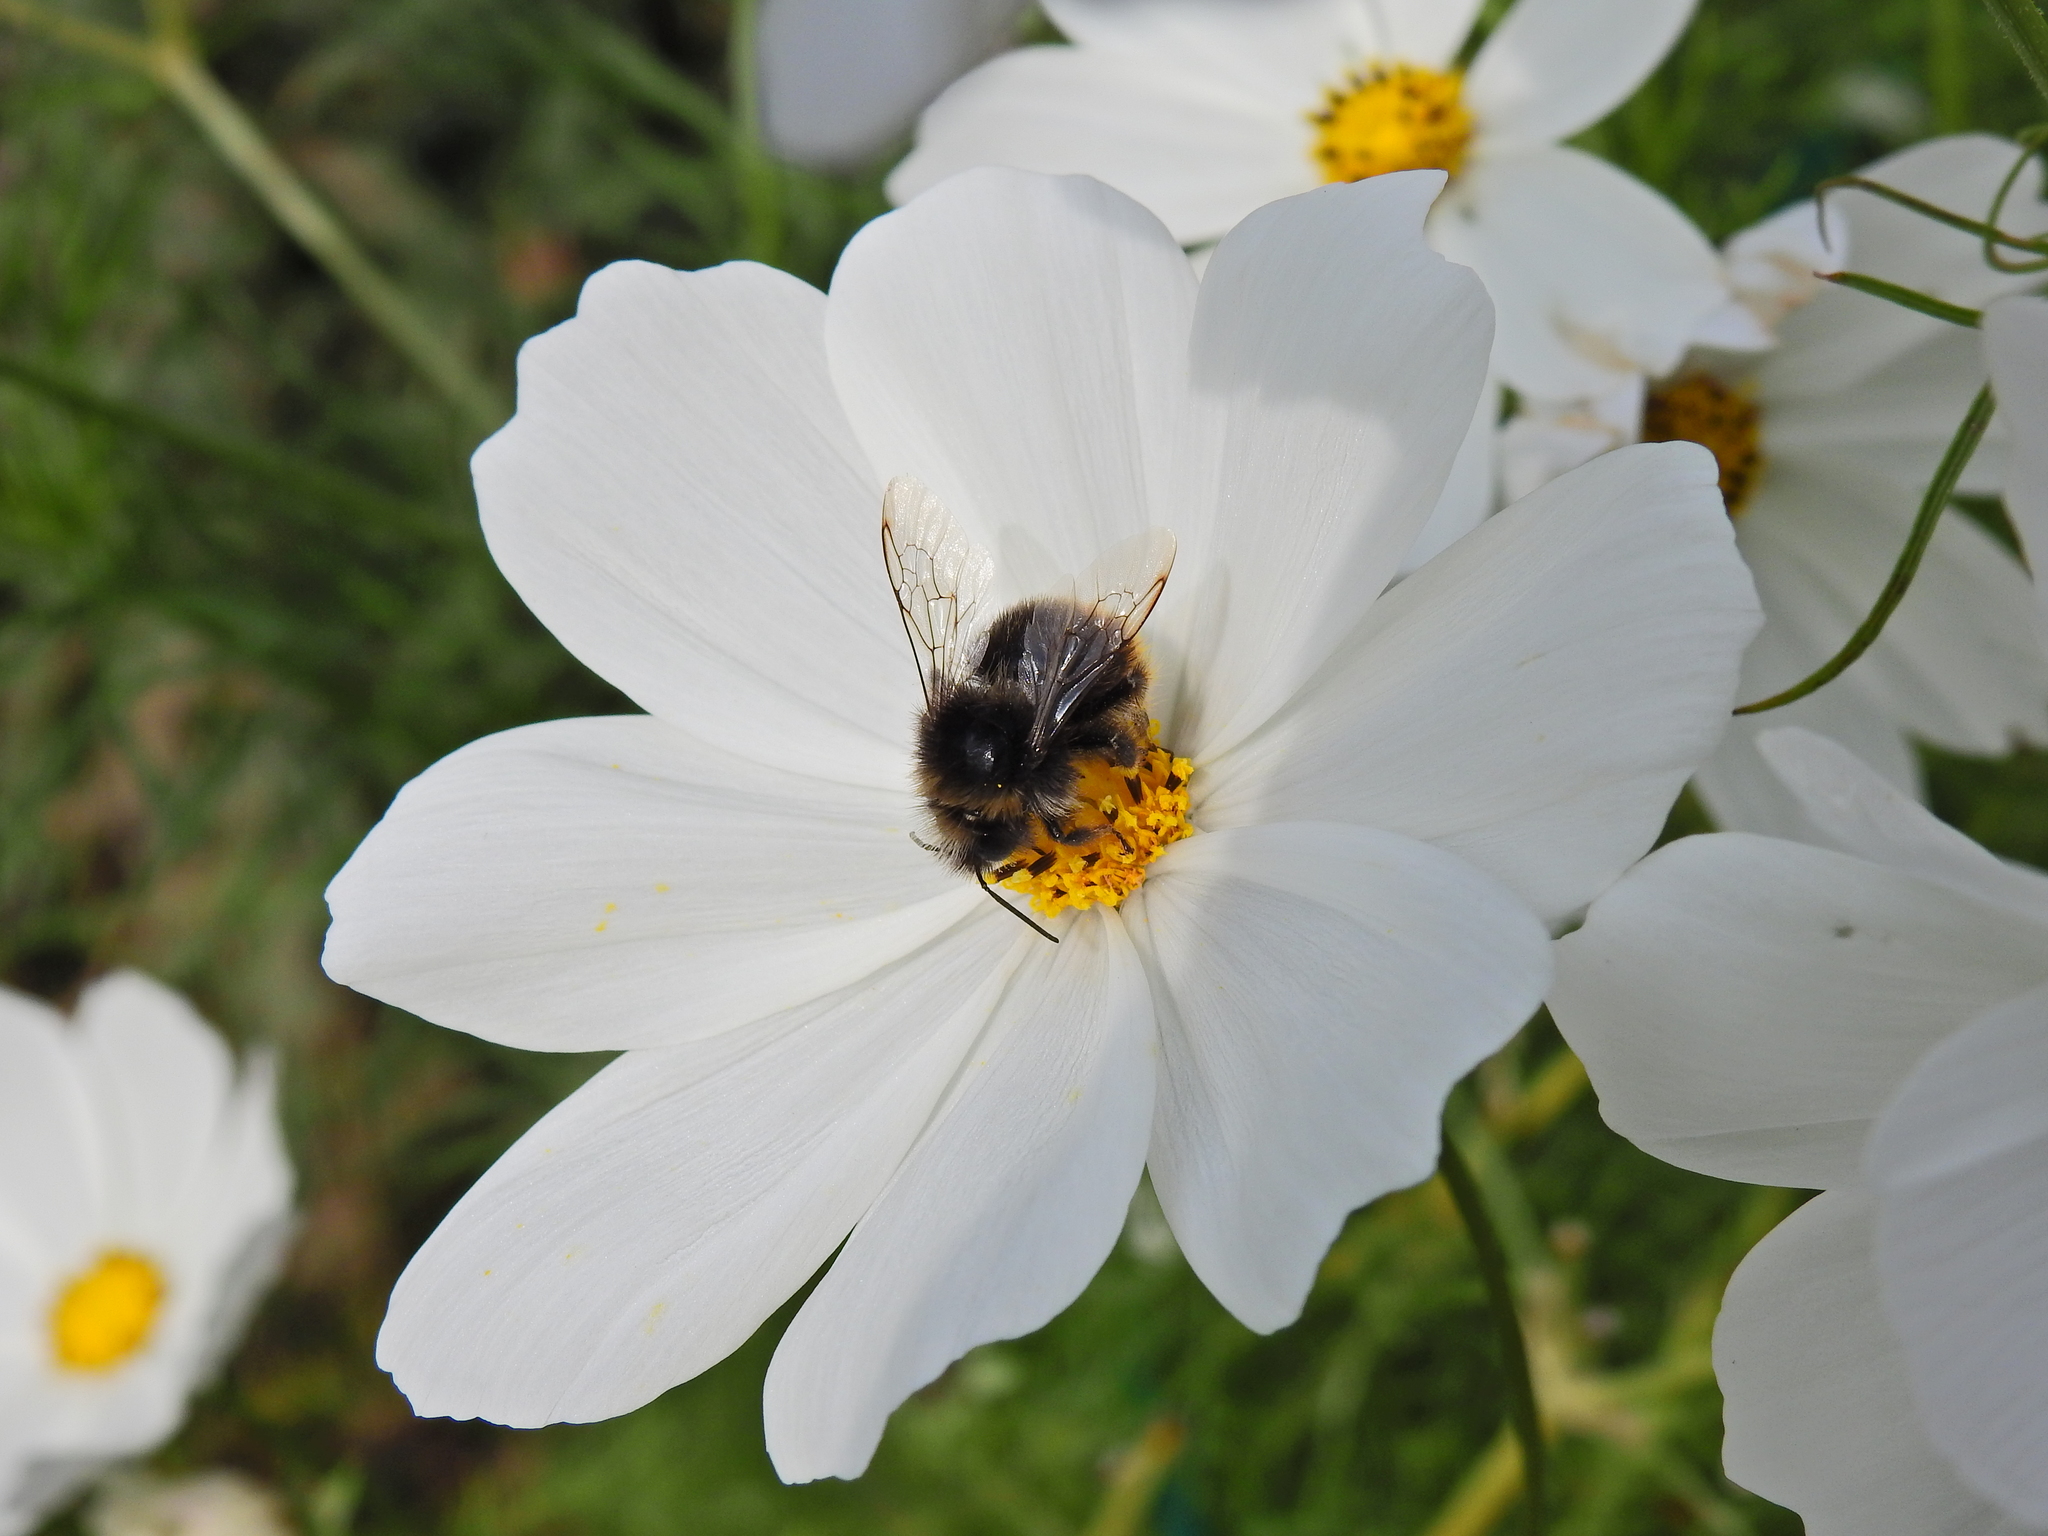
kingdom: Animalia
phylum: Arthropoda
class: Insecta
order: Hymenoptera
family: Apidae
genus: Bombus
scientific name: Bombus lapidarius
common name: Large red-tailed humble-bee
